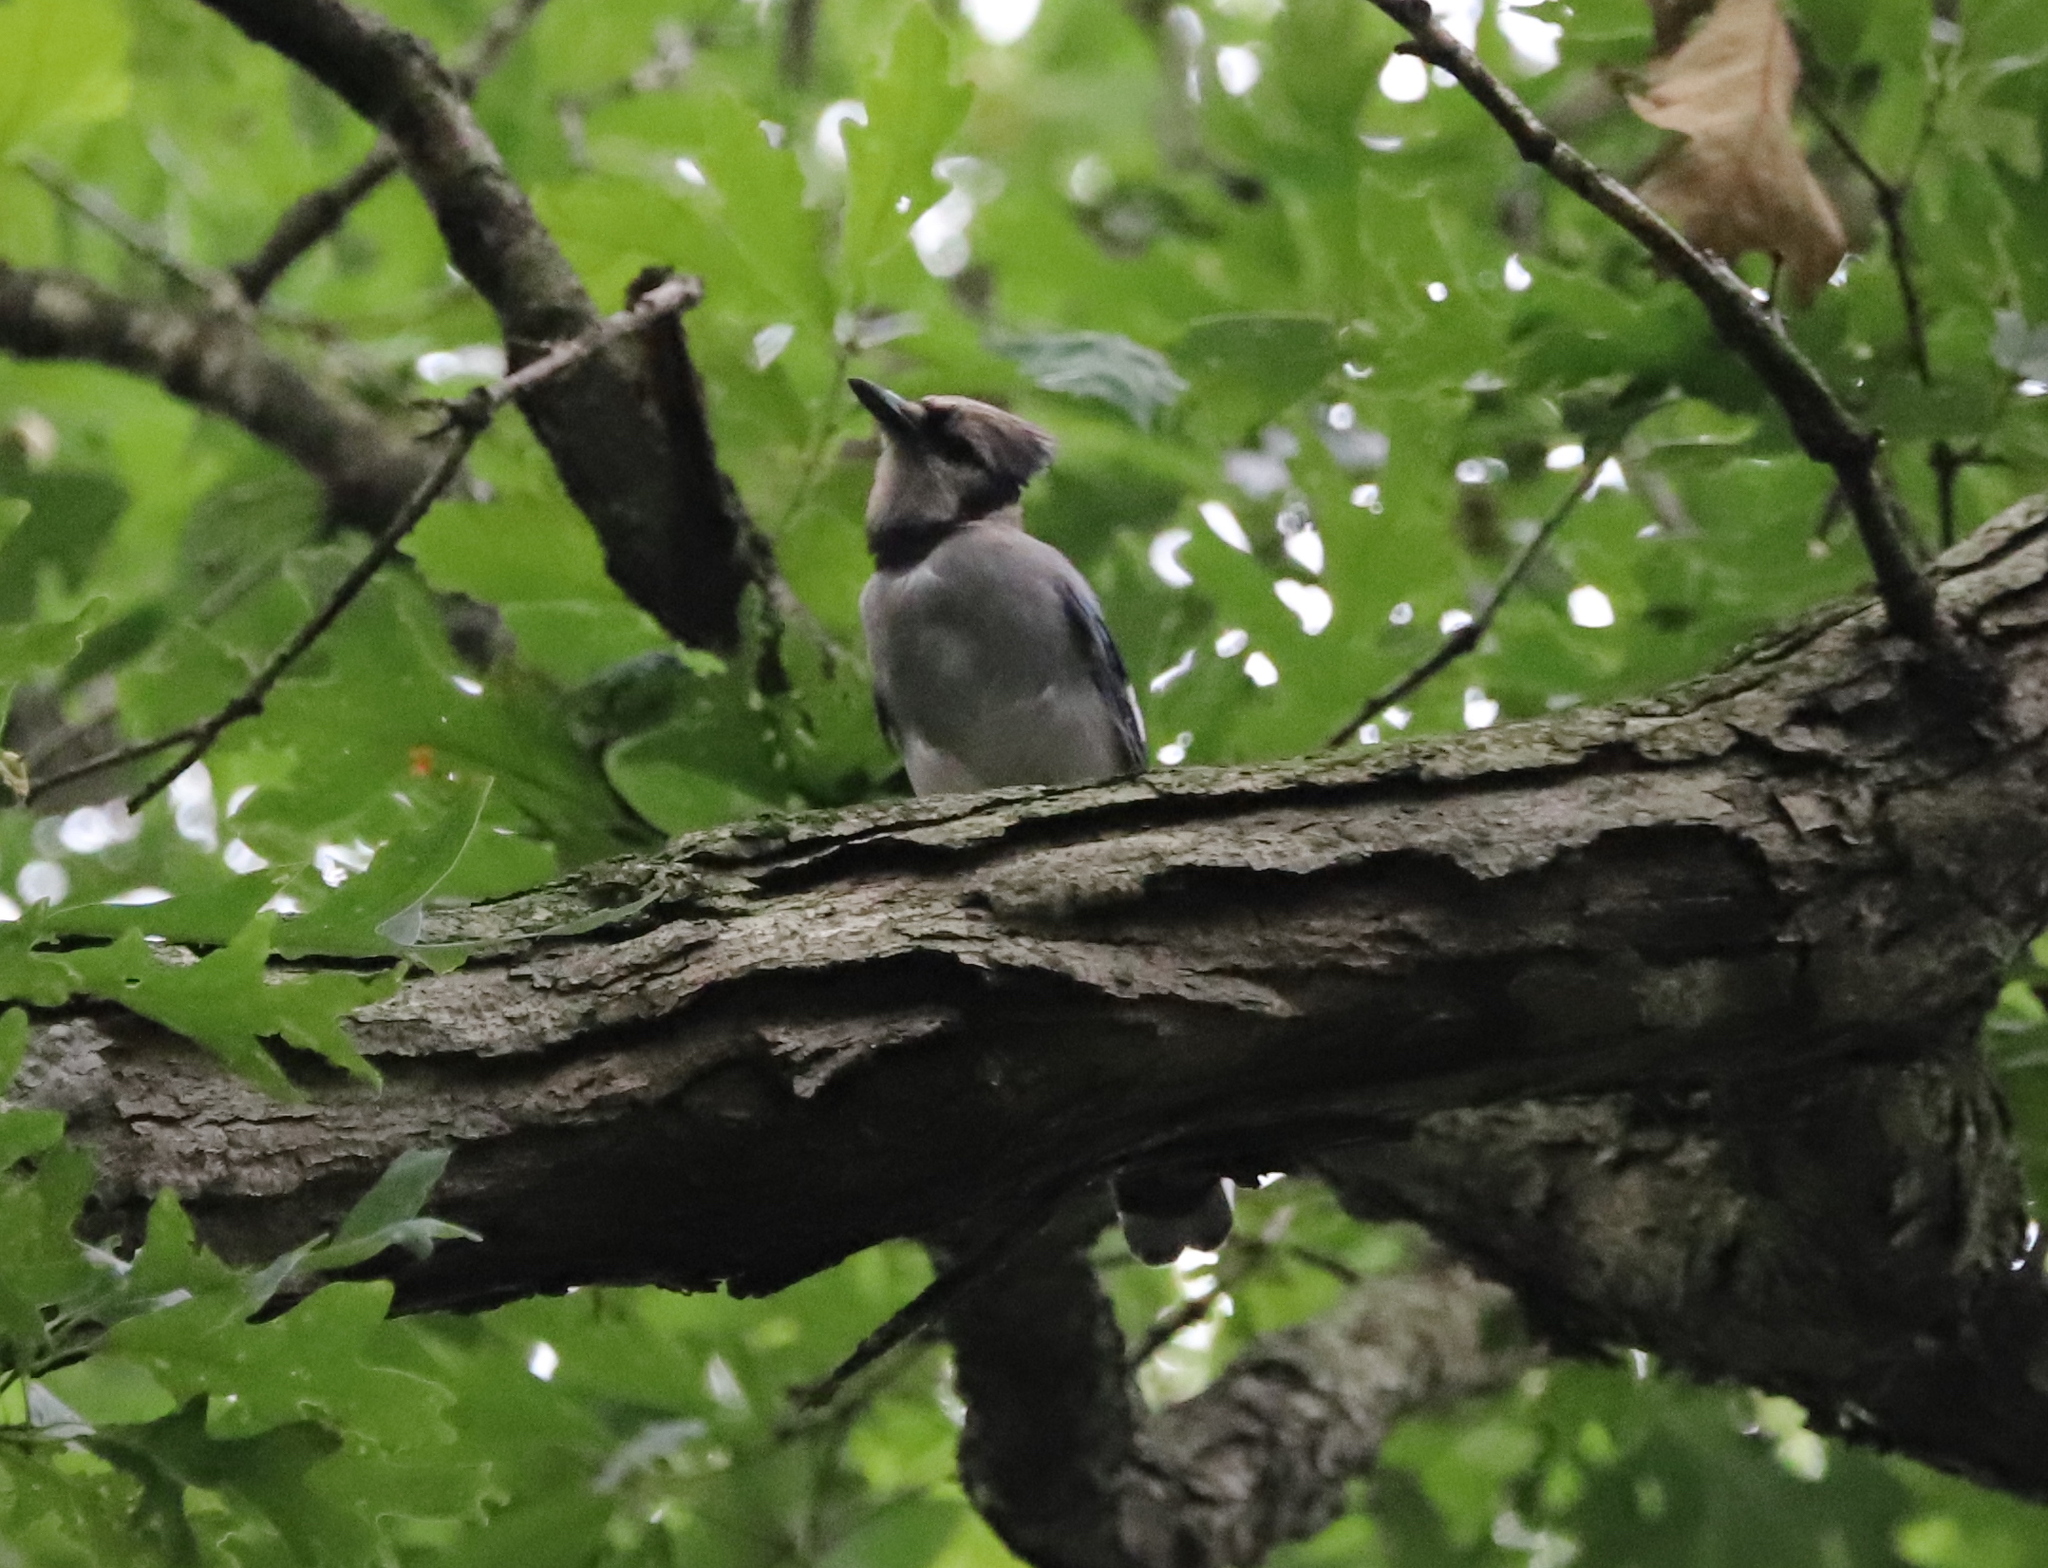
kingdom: Animalia
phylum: Chordata
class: Aves
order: Passeriformes
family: Corvidae
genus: Cyanocitta
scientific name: Cyanocitta cristata
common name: Blue jay
